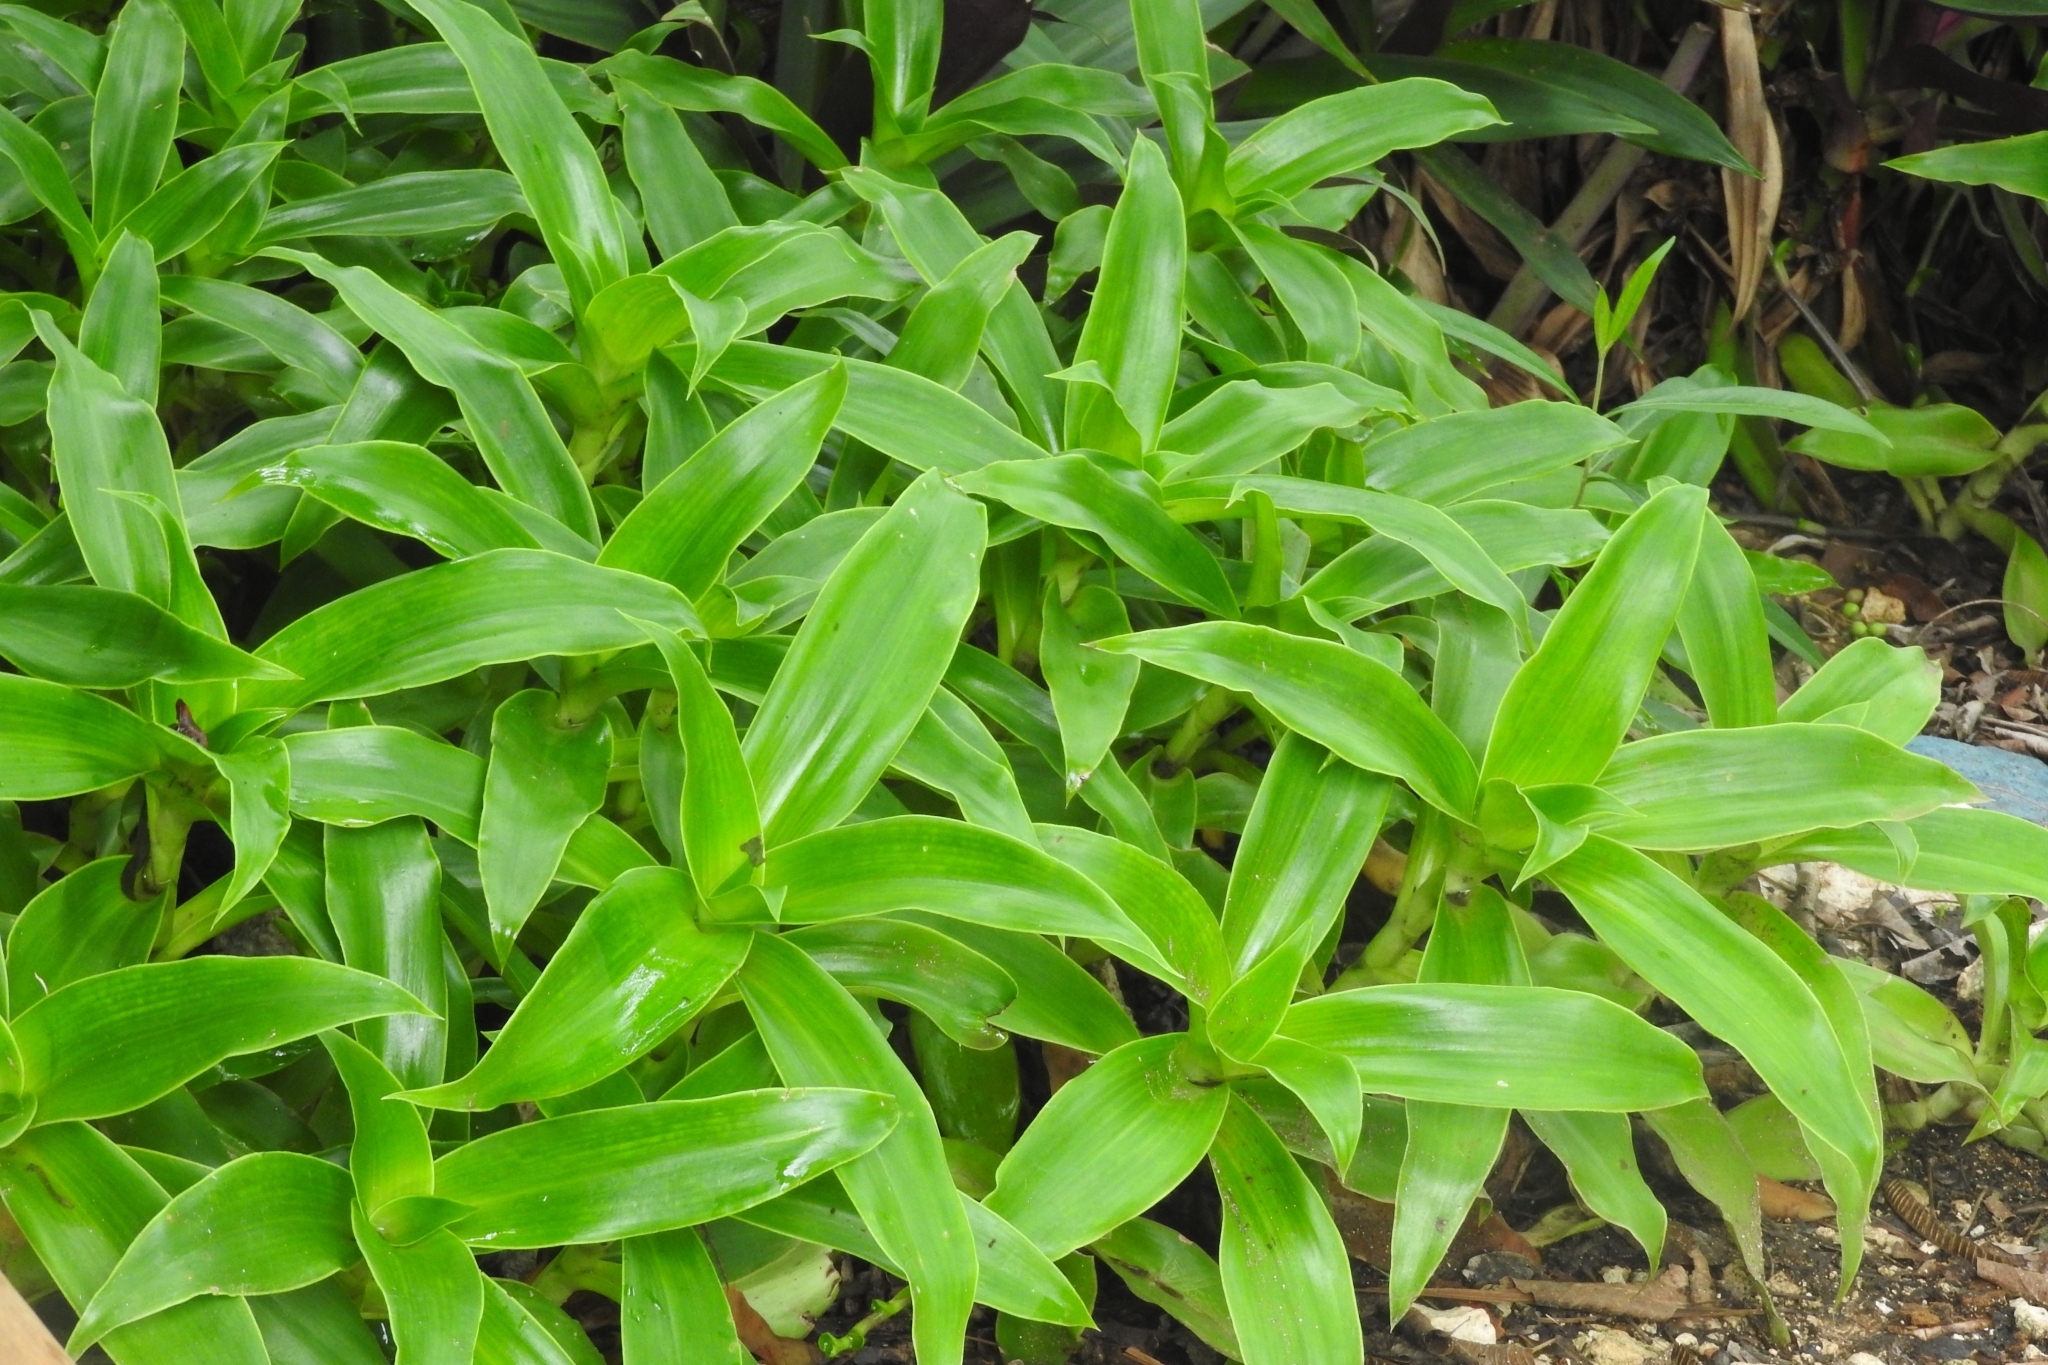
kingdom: Plantae
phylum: Tracheophyta
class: Liliopsida
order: Commelinales
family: Commelinaceae
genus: Callisia
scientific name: Callisia fragrans
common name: Basketplant
